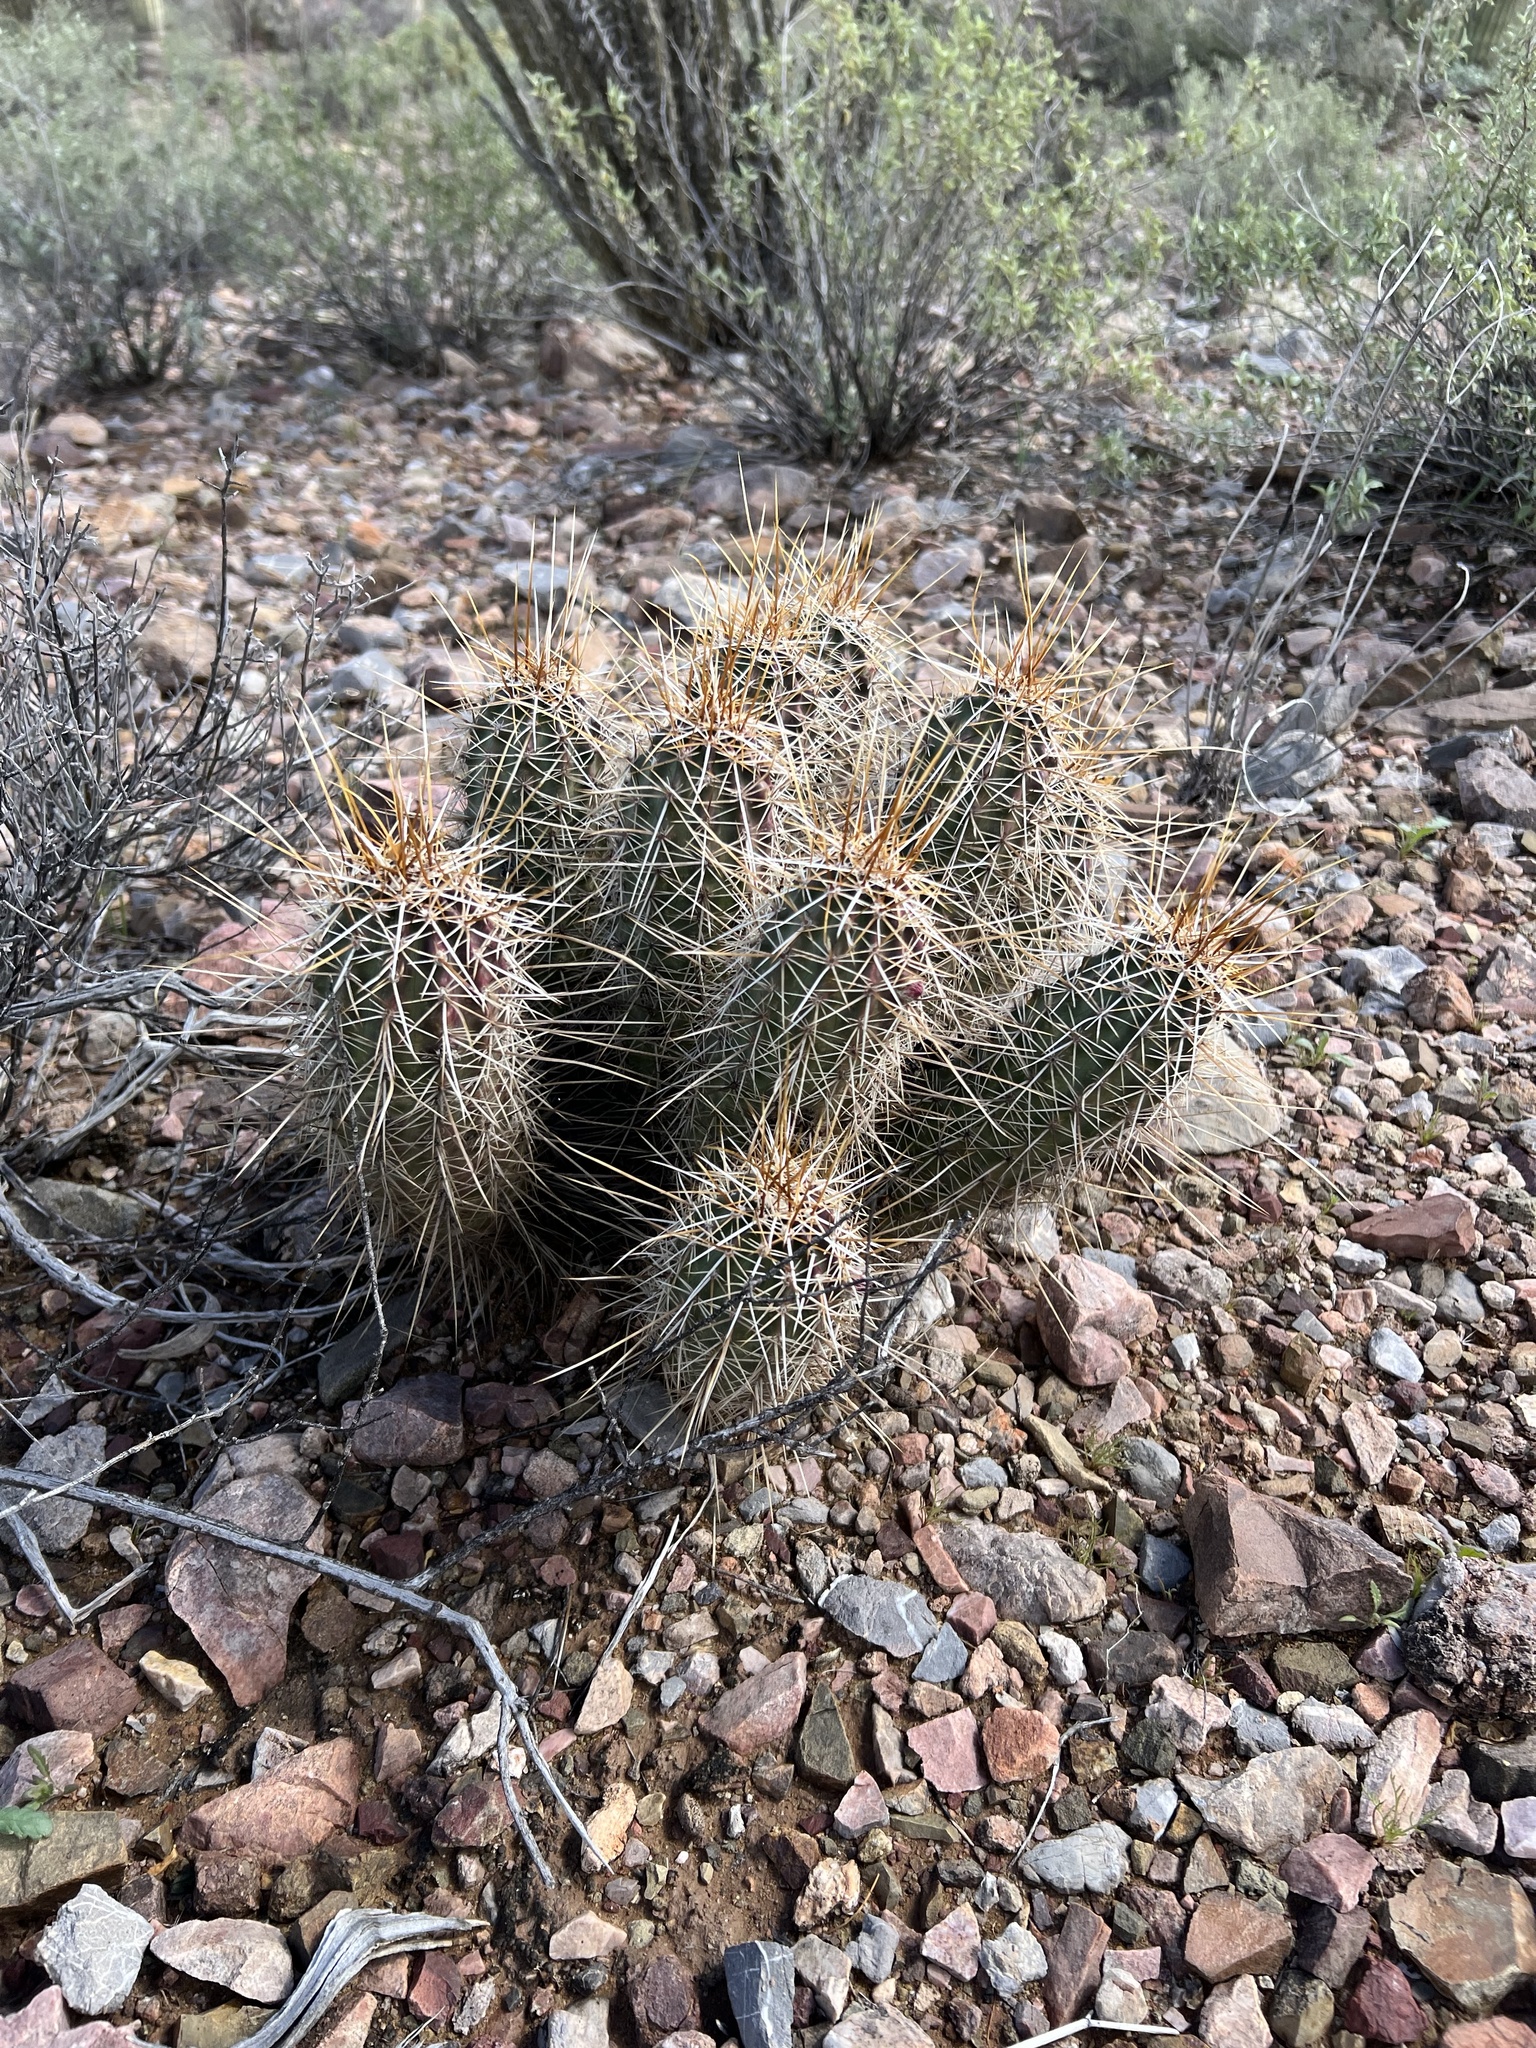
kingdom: Plantae
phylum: Tracheophyta
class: Magnoliopsida
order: Caryophyllales
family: Cactaceae
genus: Echinocereus
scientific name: Echinocereus fasciculatus
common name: Bundle hedgehog
